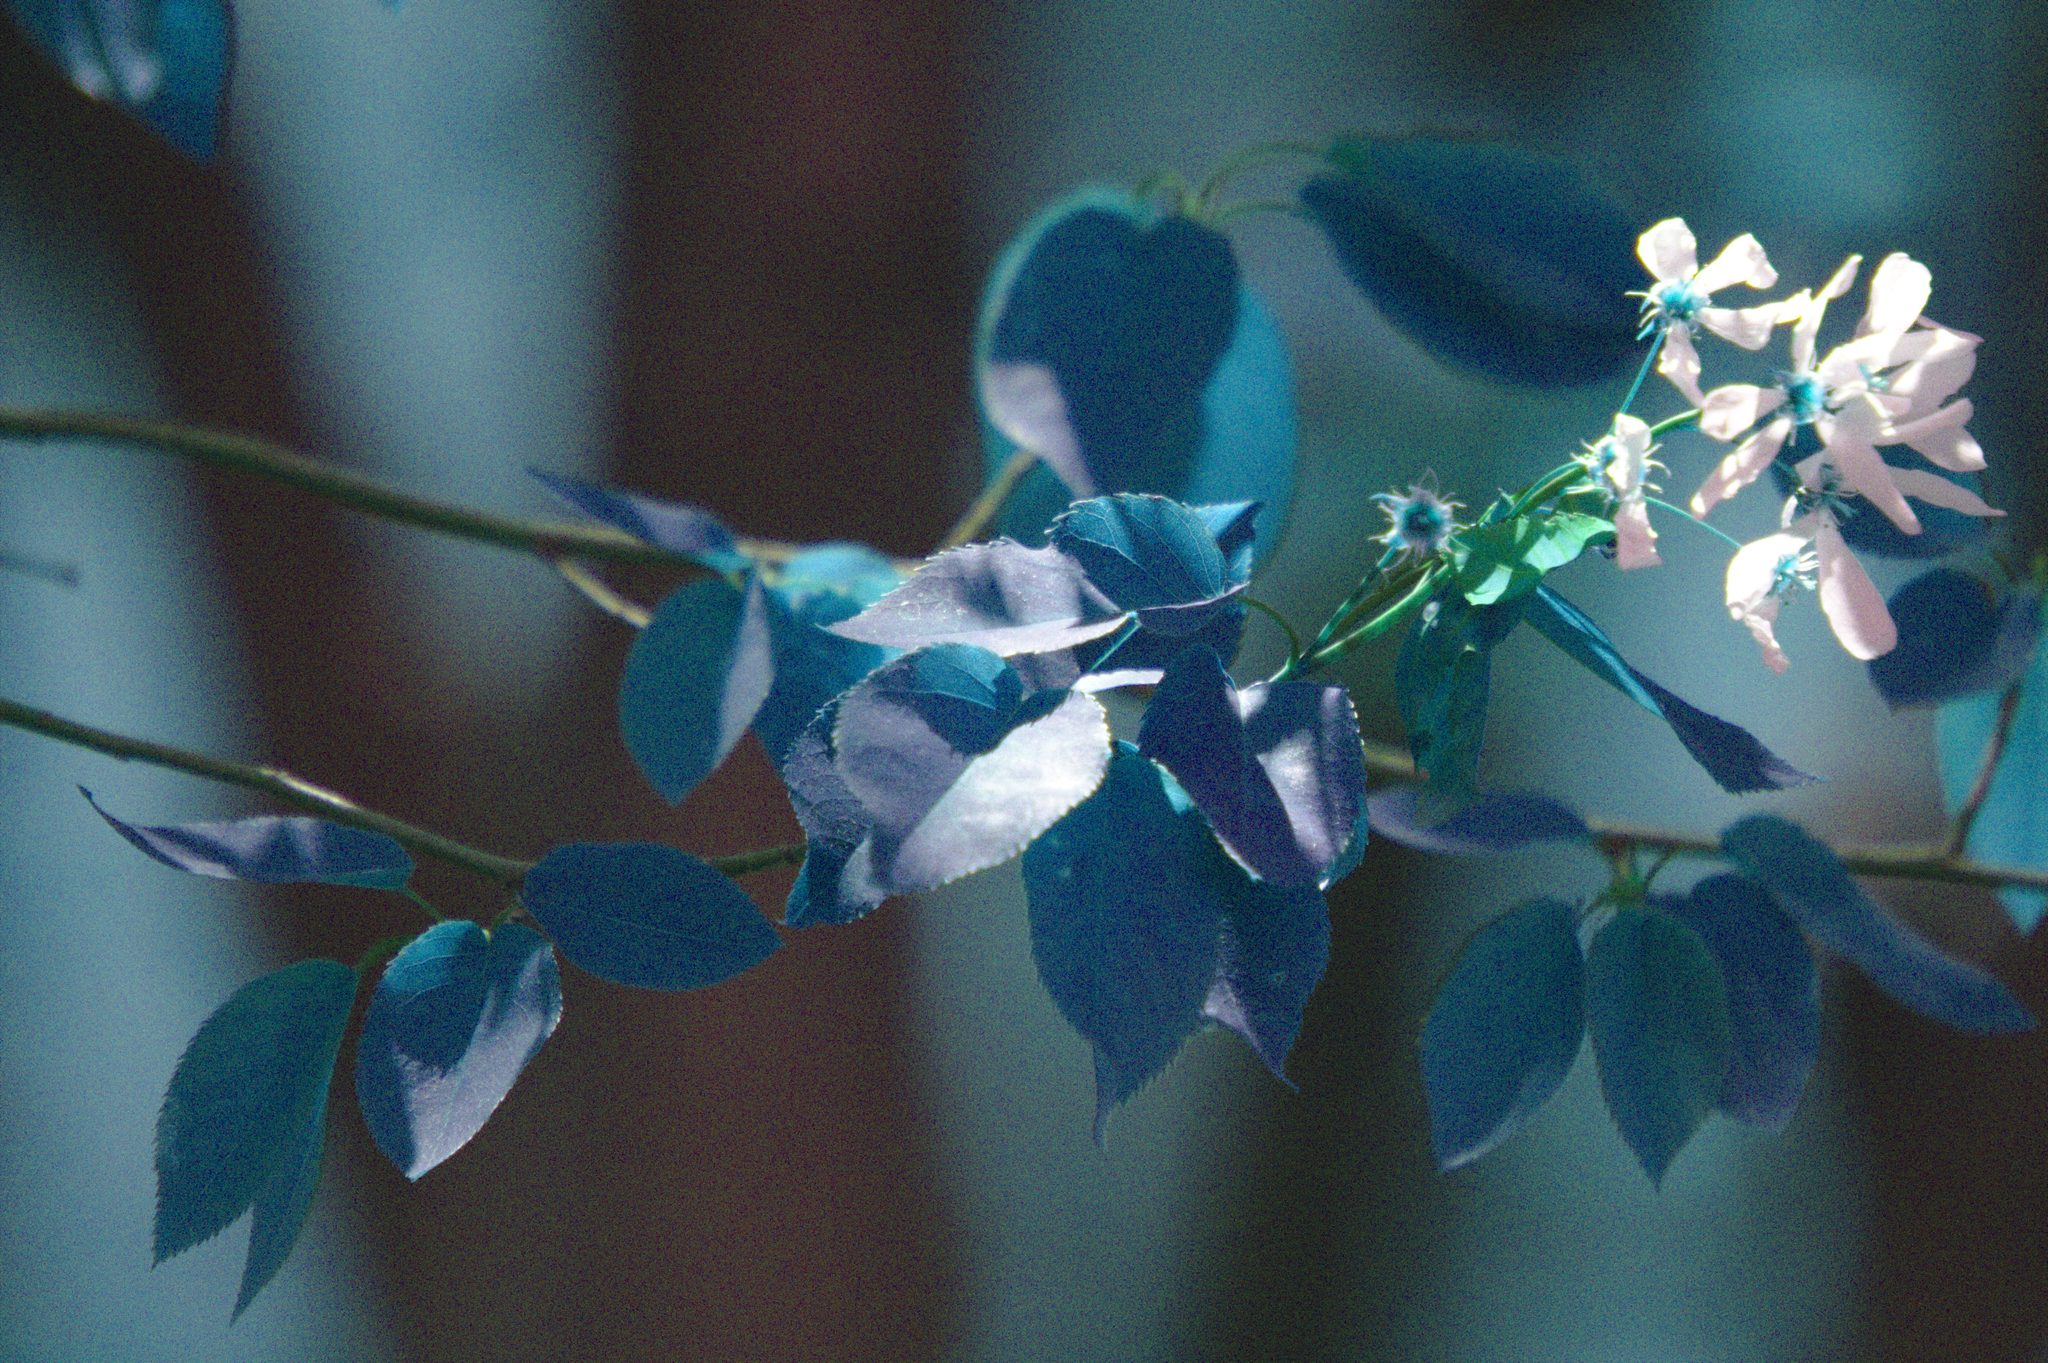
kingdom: Plantae
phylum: Tracheophyta
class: Magnoliopsida
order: Rosales
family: Rosaceae
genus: Amelanchier
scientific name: Amelanchier laevis
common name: Allegheny serviceberry
